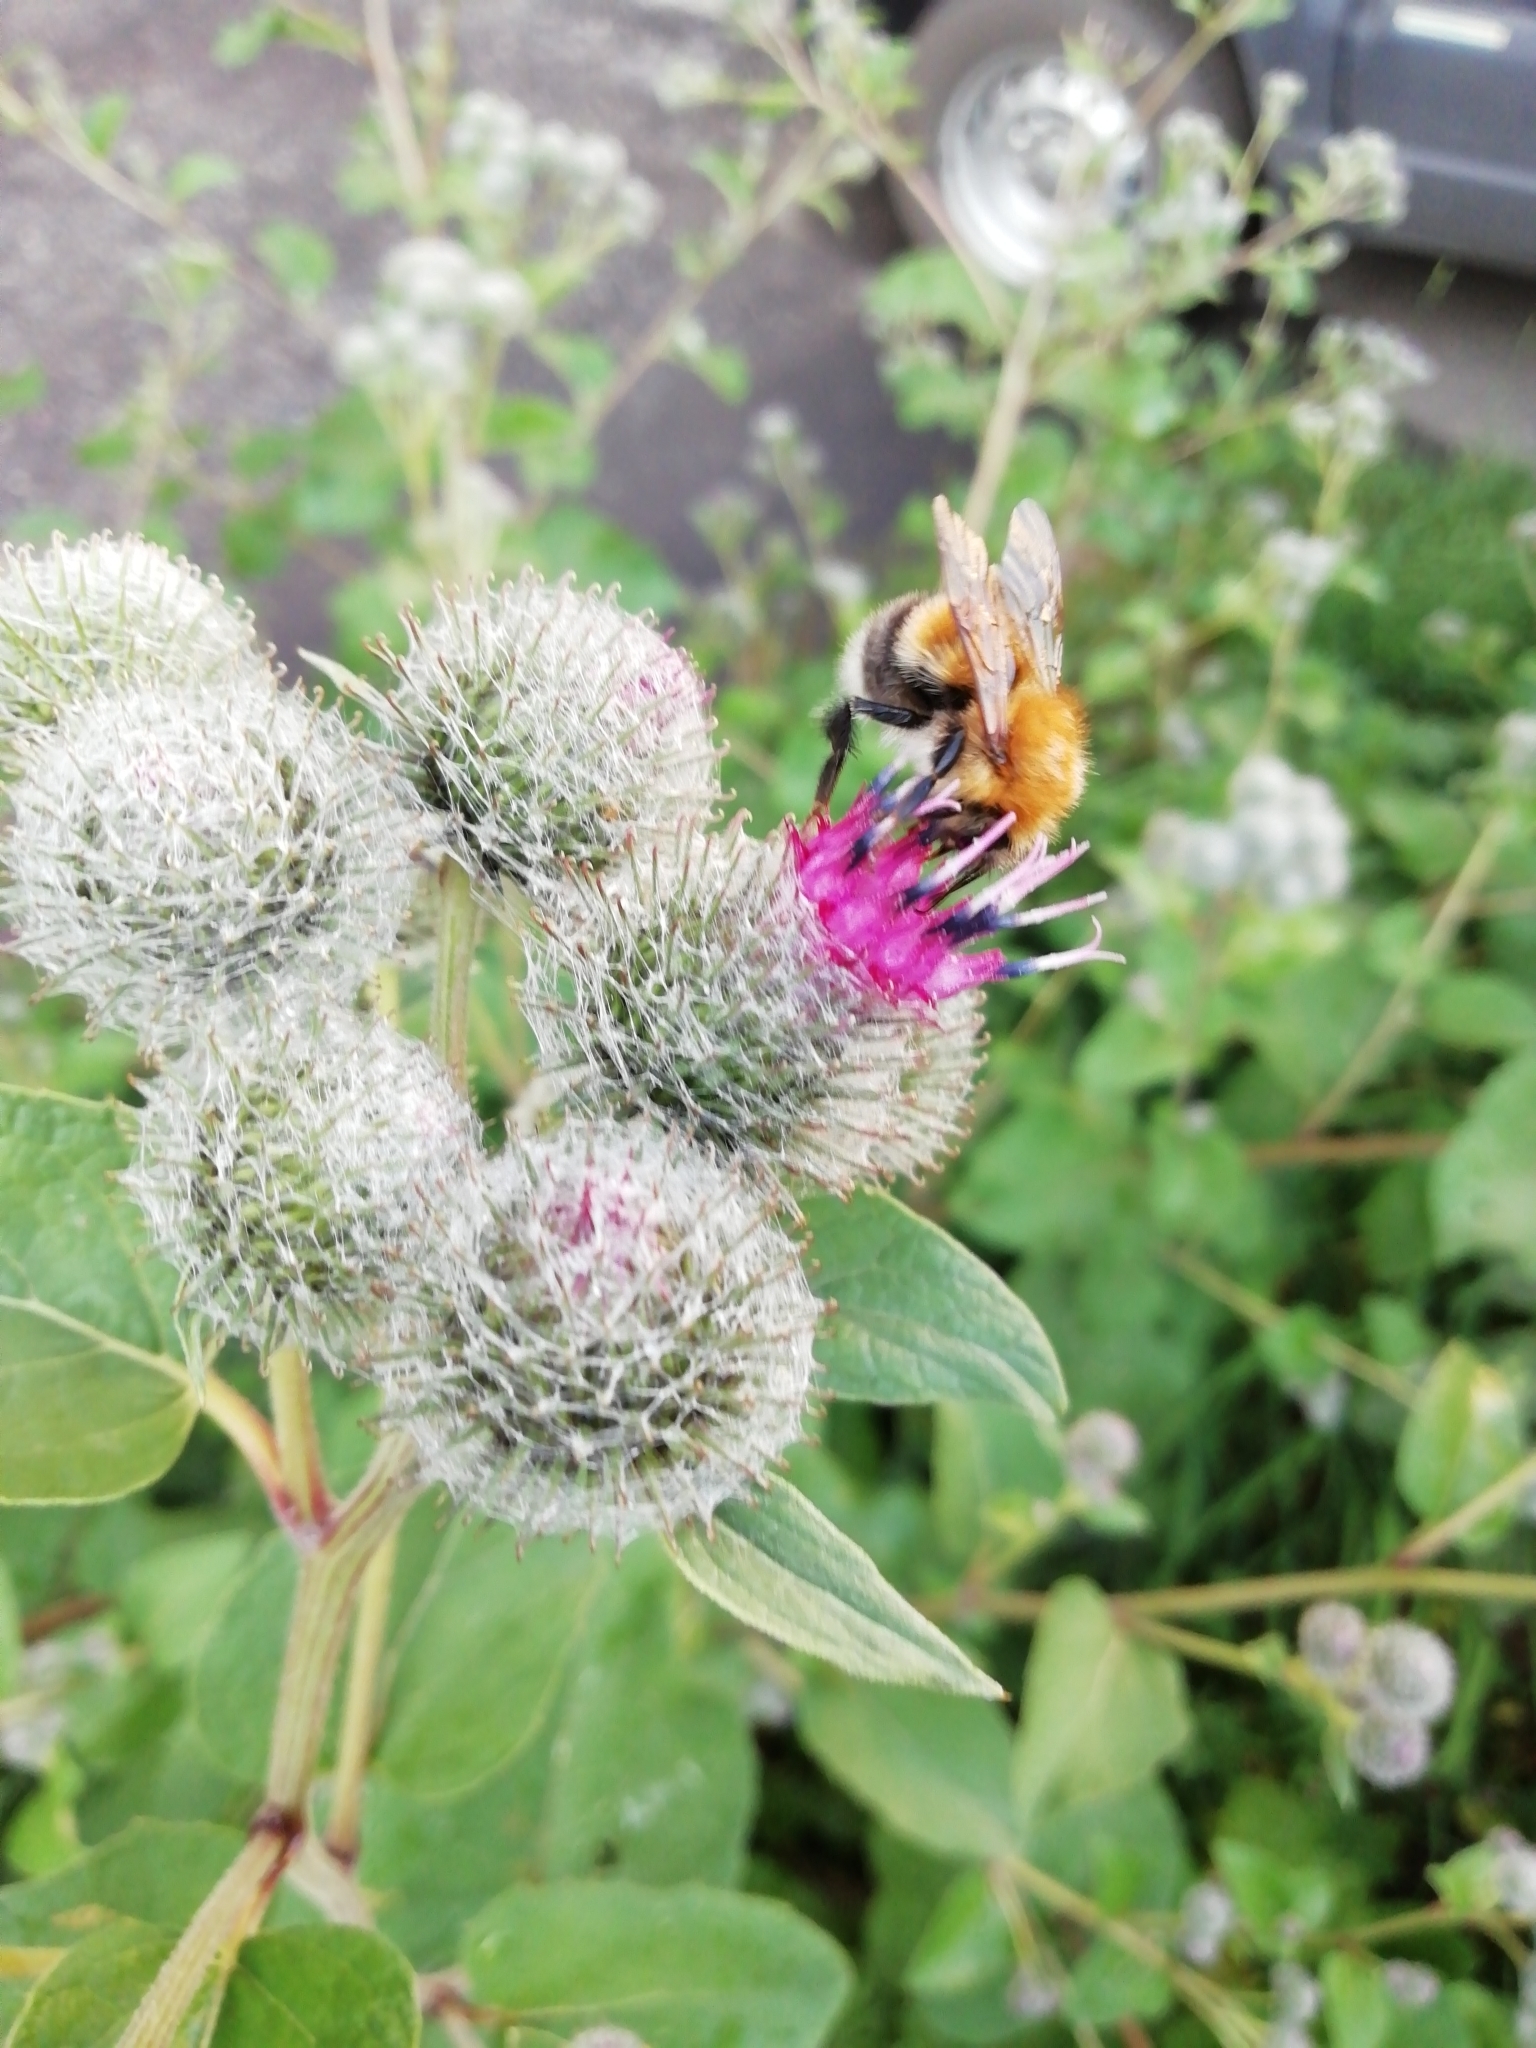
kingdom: Animalia
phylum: Arthropoda
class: Insecta
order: Hymenoptera
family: Apidae
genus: Bombus
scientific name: Bombus hypnorum
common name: New garden bumblebee
